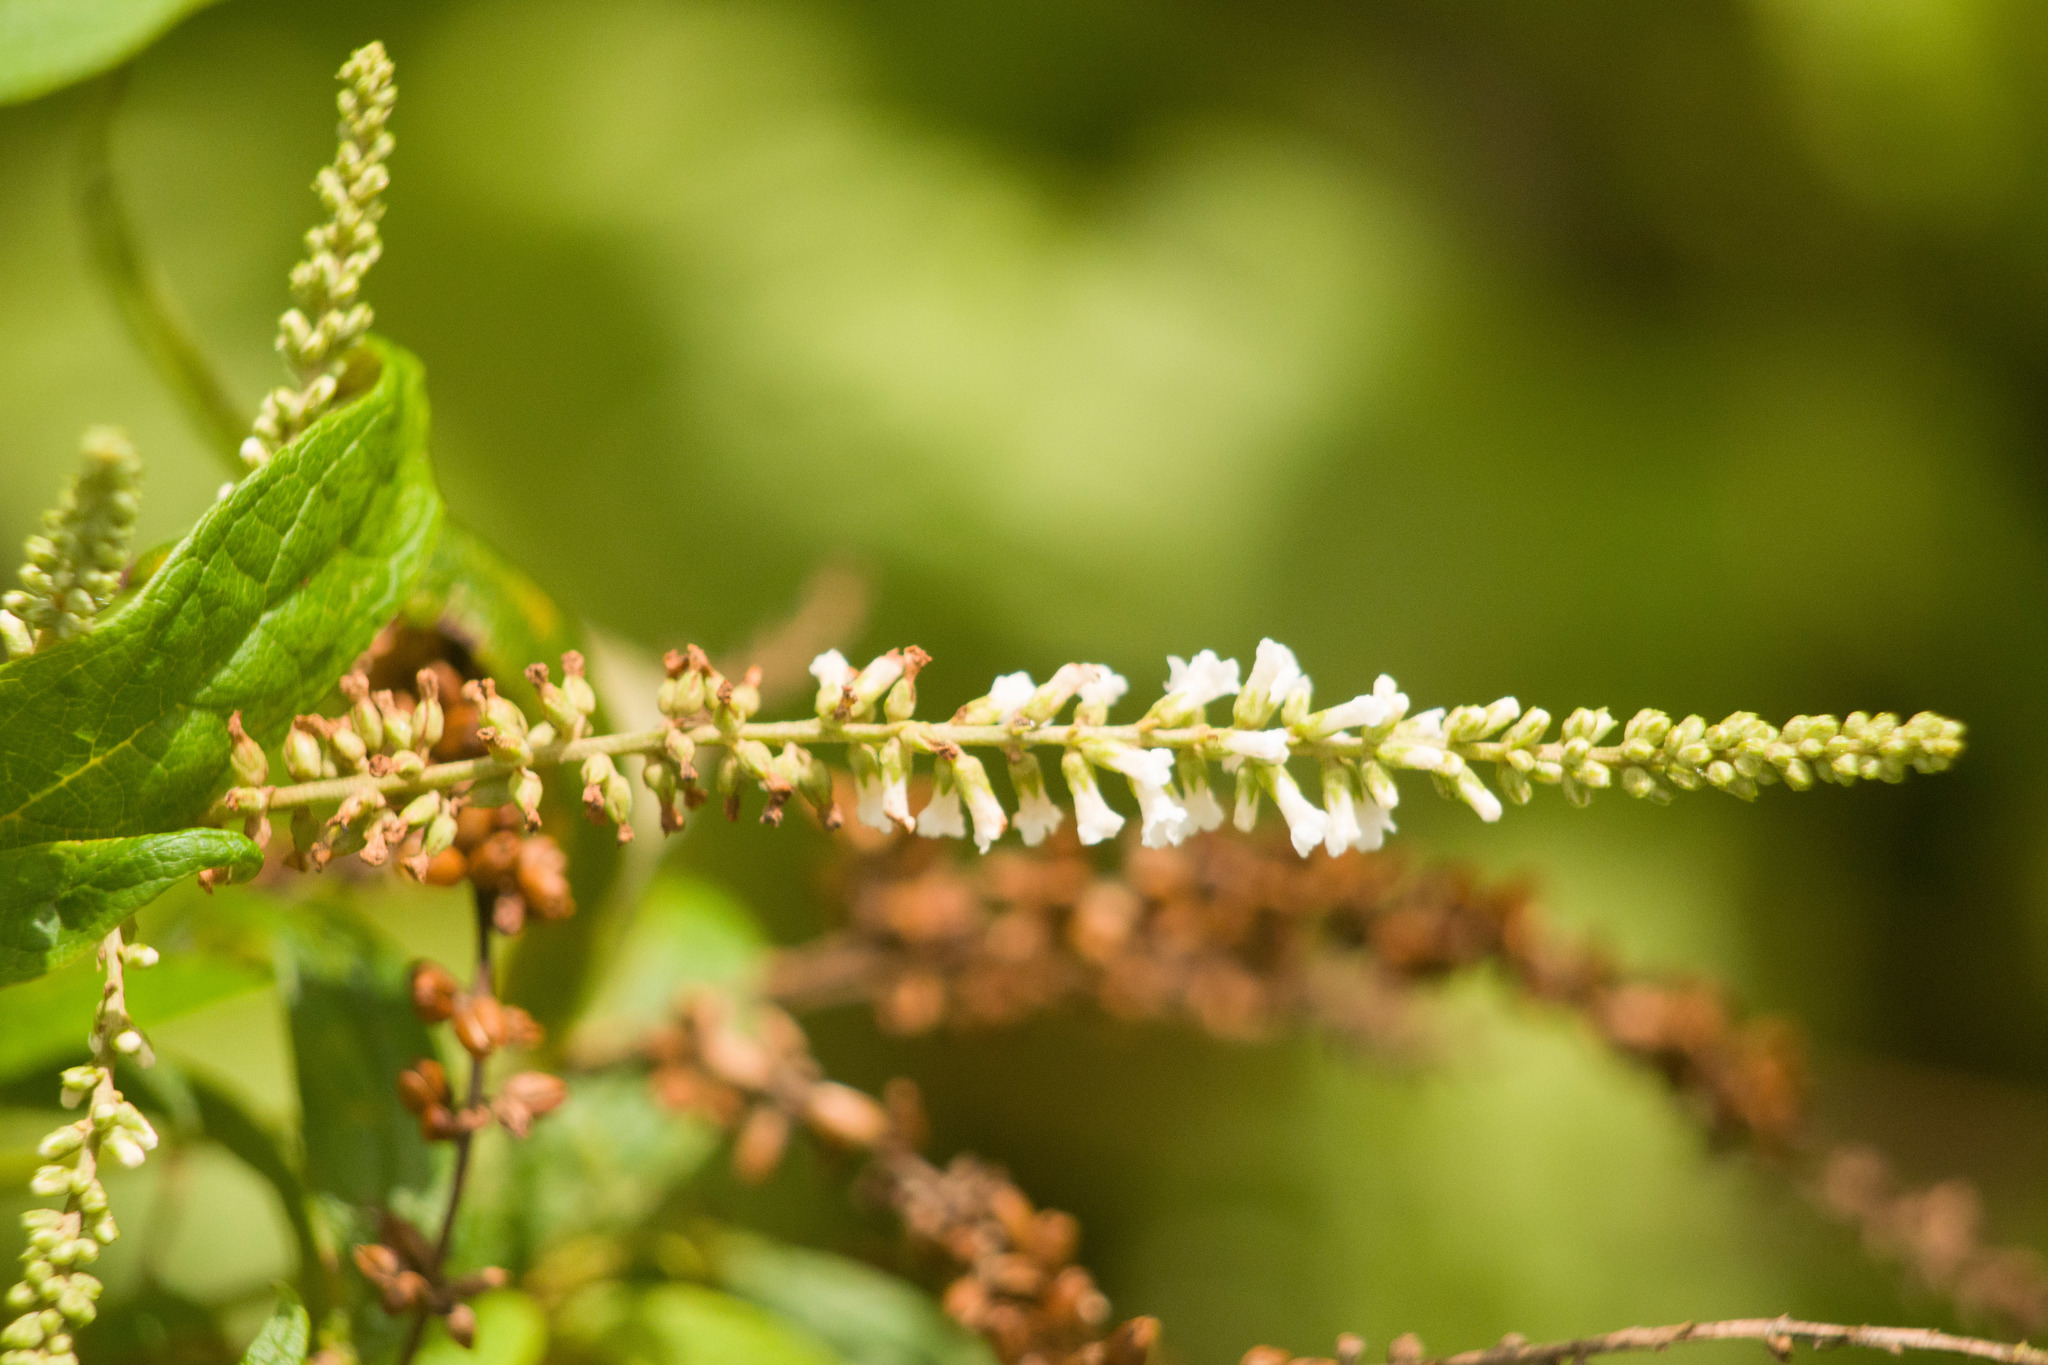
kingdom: Plantae
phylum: Tracheophyta
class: Magnoliopsida
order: Lamiales
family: Scrophulariaceae
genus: Buddleja
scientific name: Buddleja asiatica
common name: Dog tail
